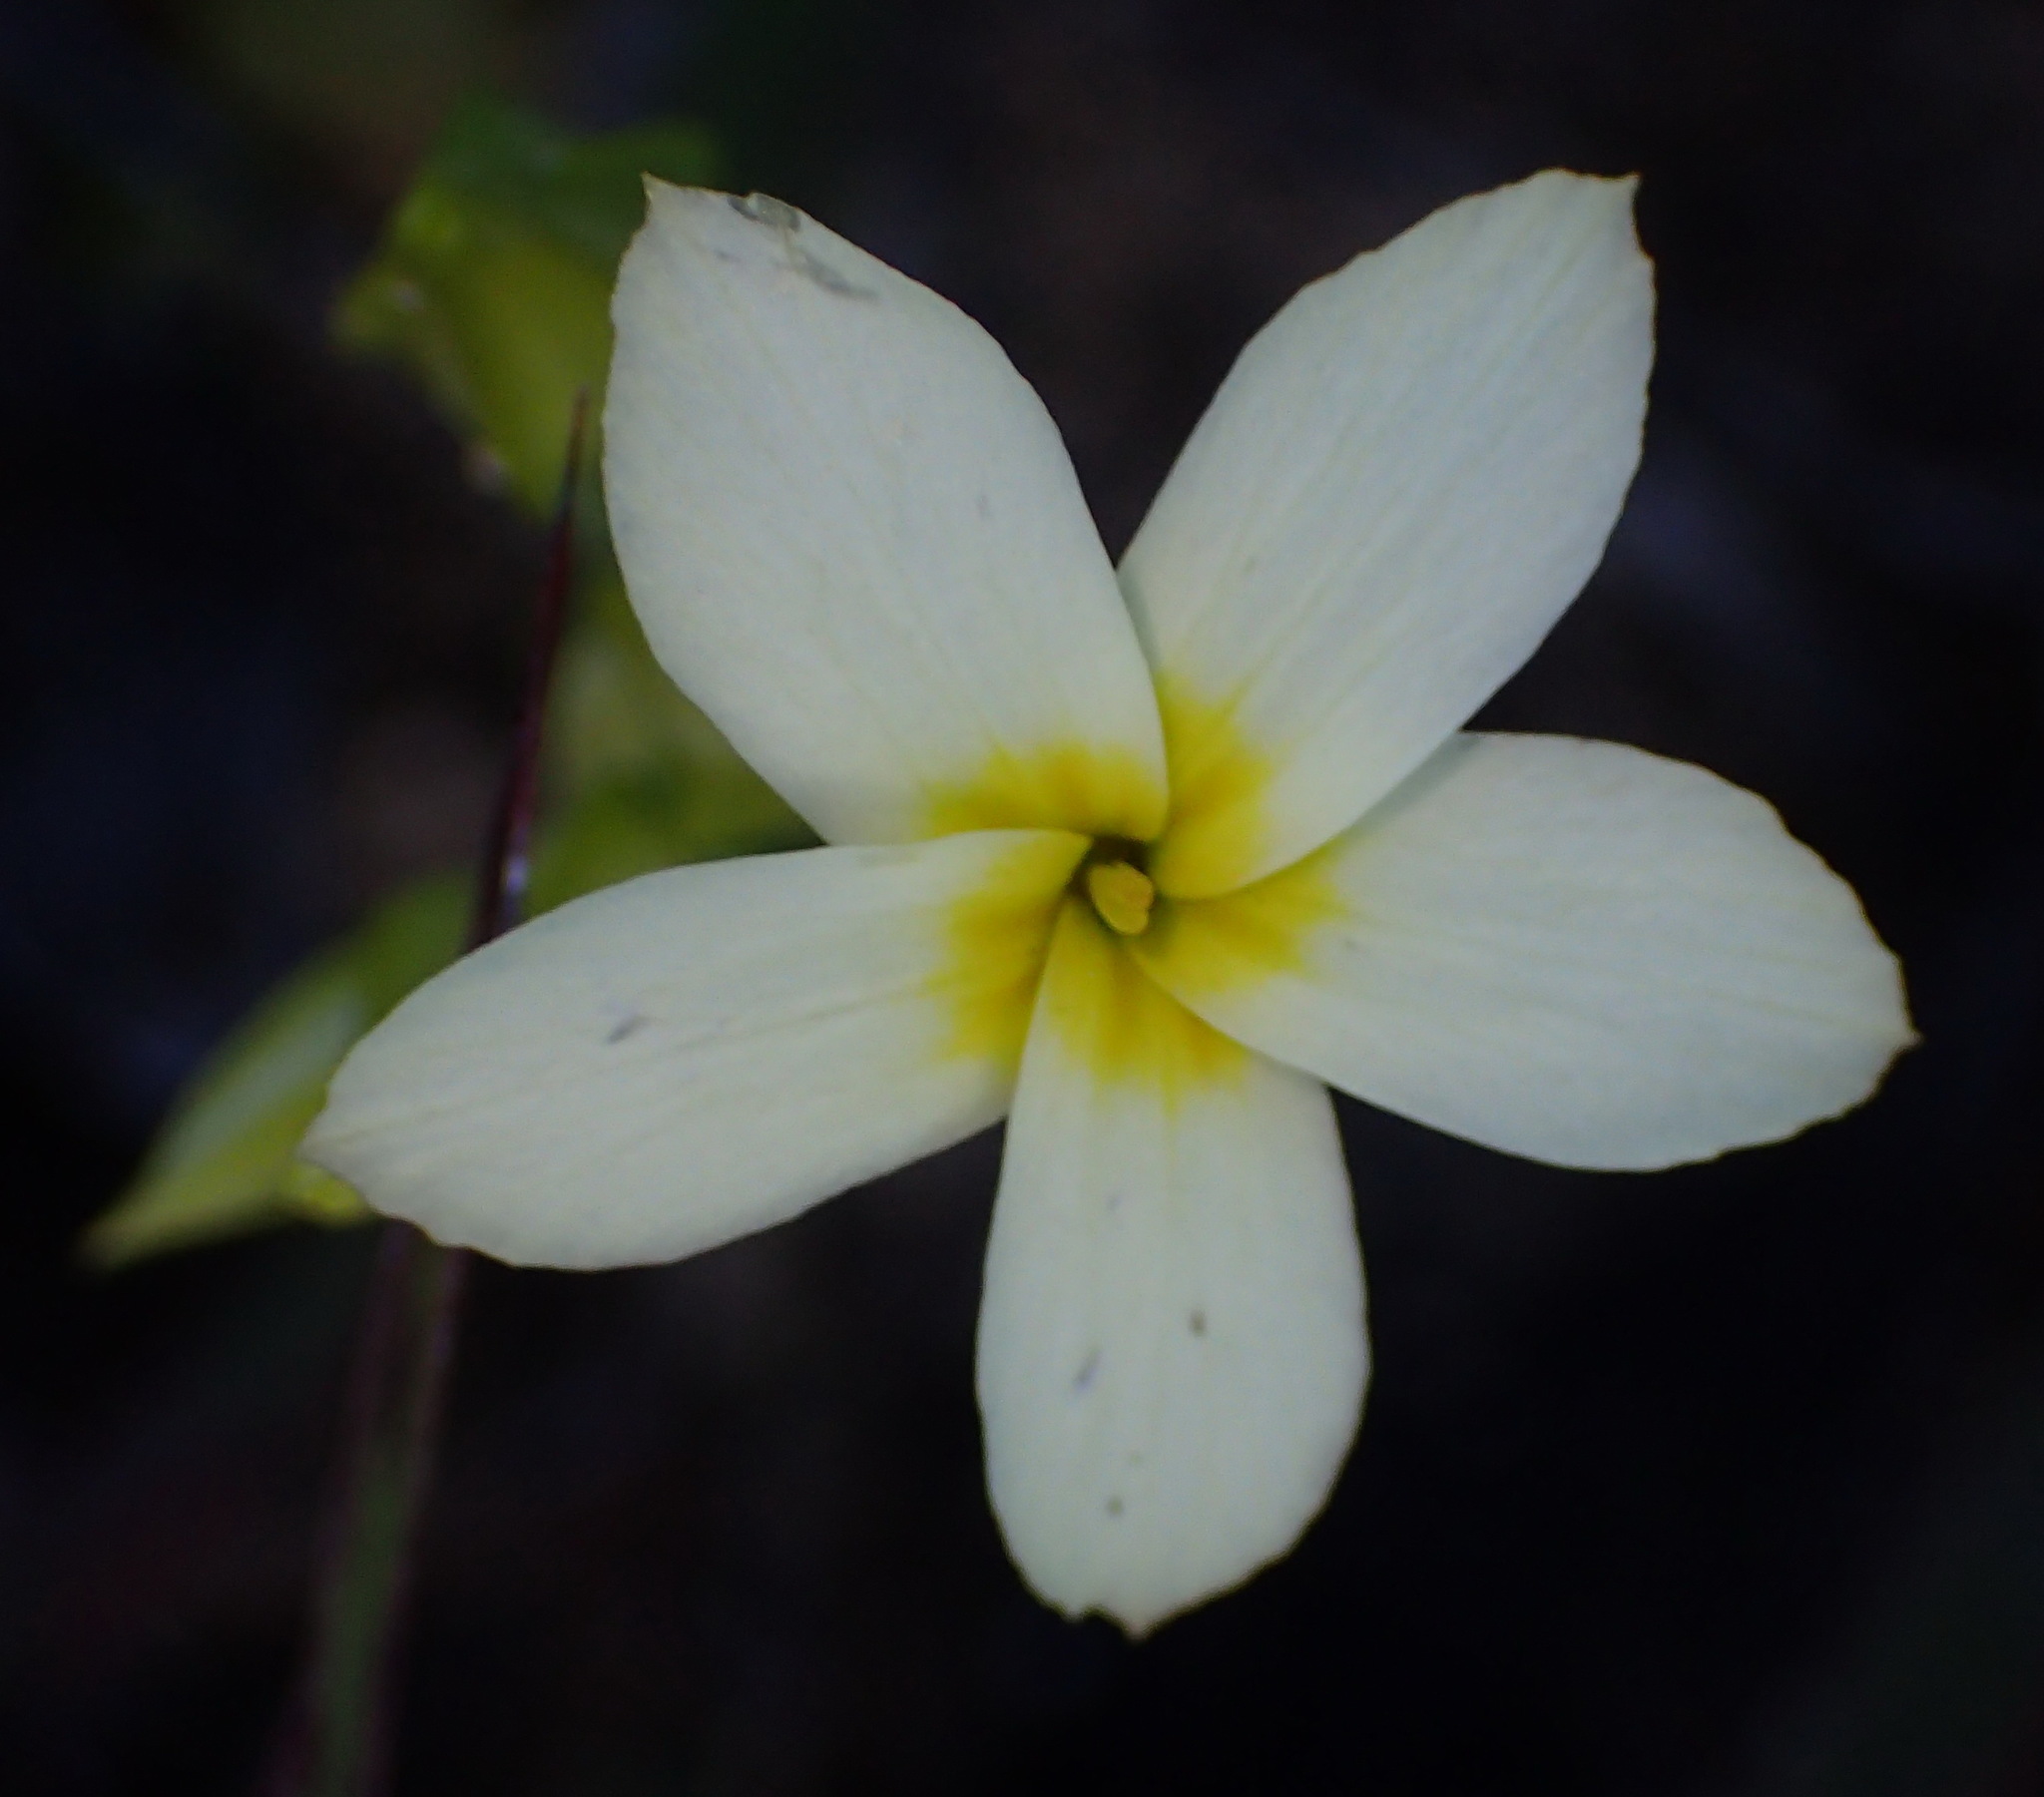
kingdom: Plantae
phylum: Tracheophyta
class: Magnoliopsida
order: Gentianales
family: Gentianaceae
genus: Sebaea
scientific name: Sebaea exacoides
